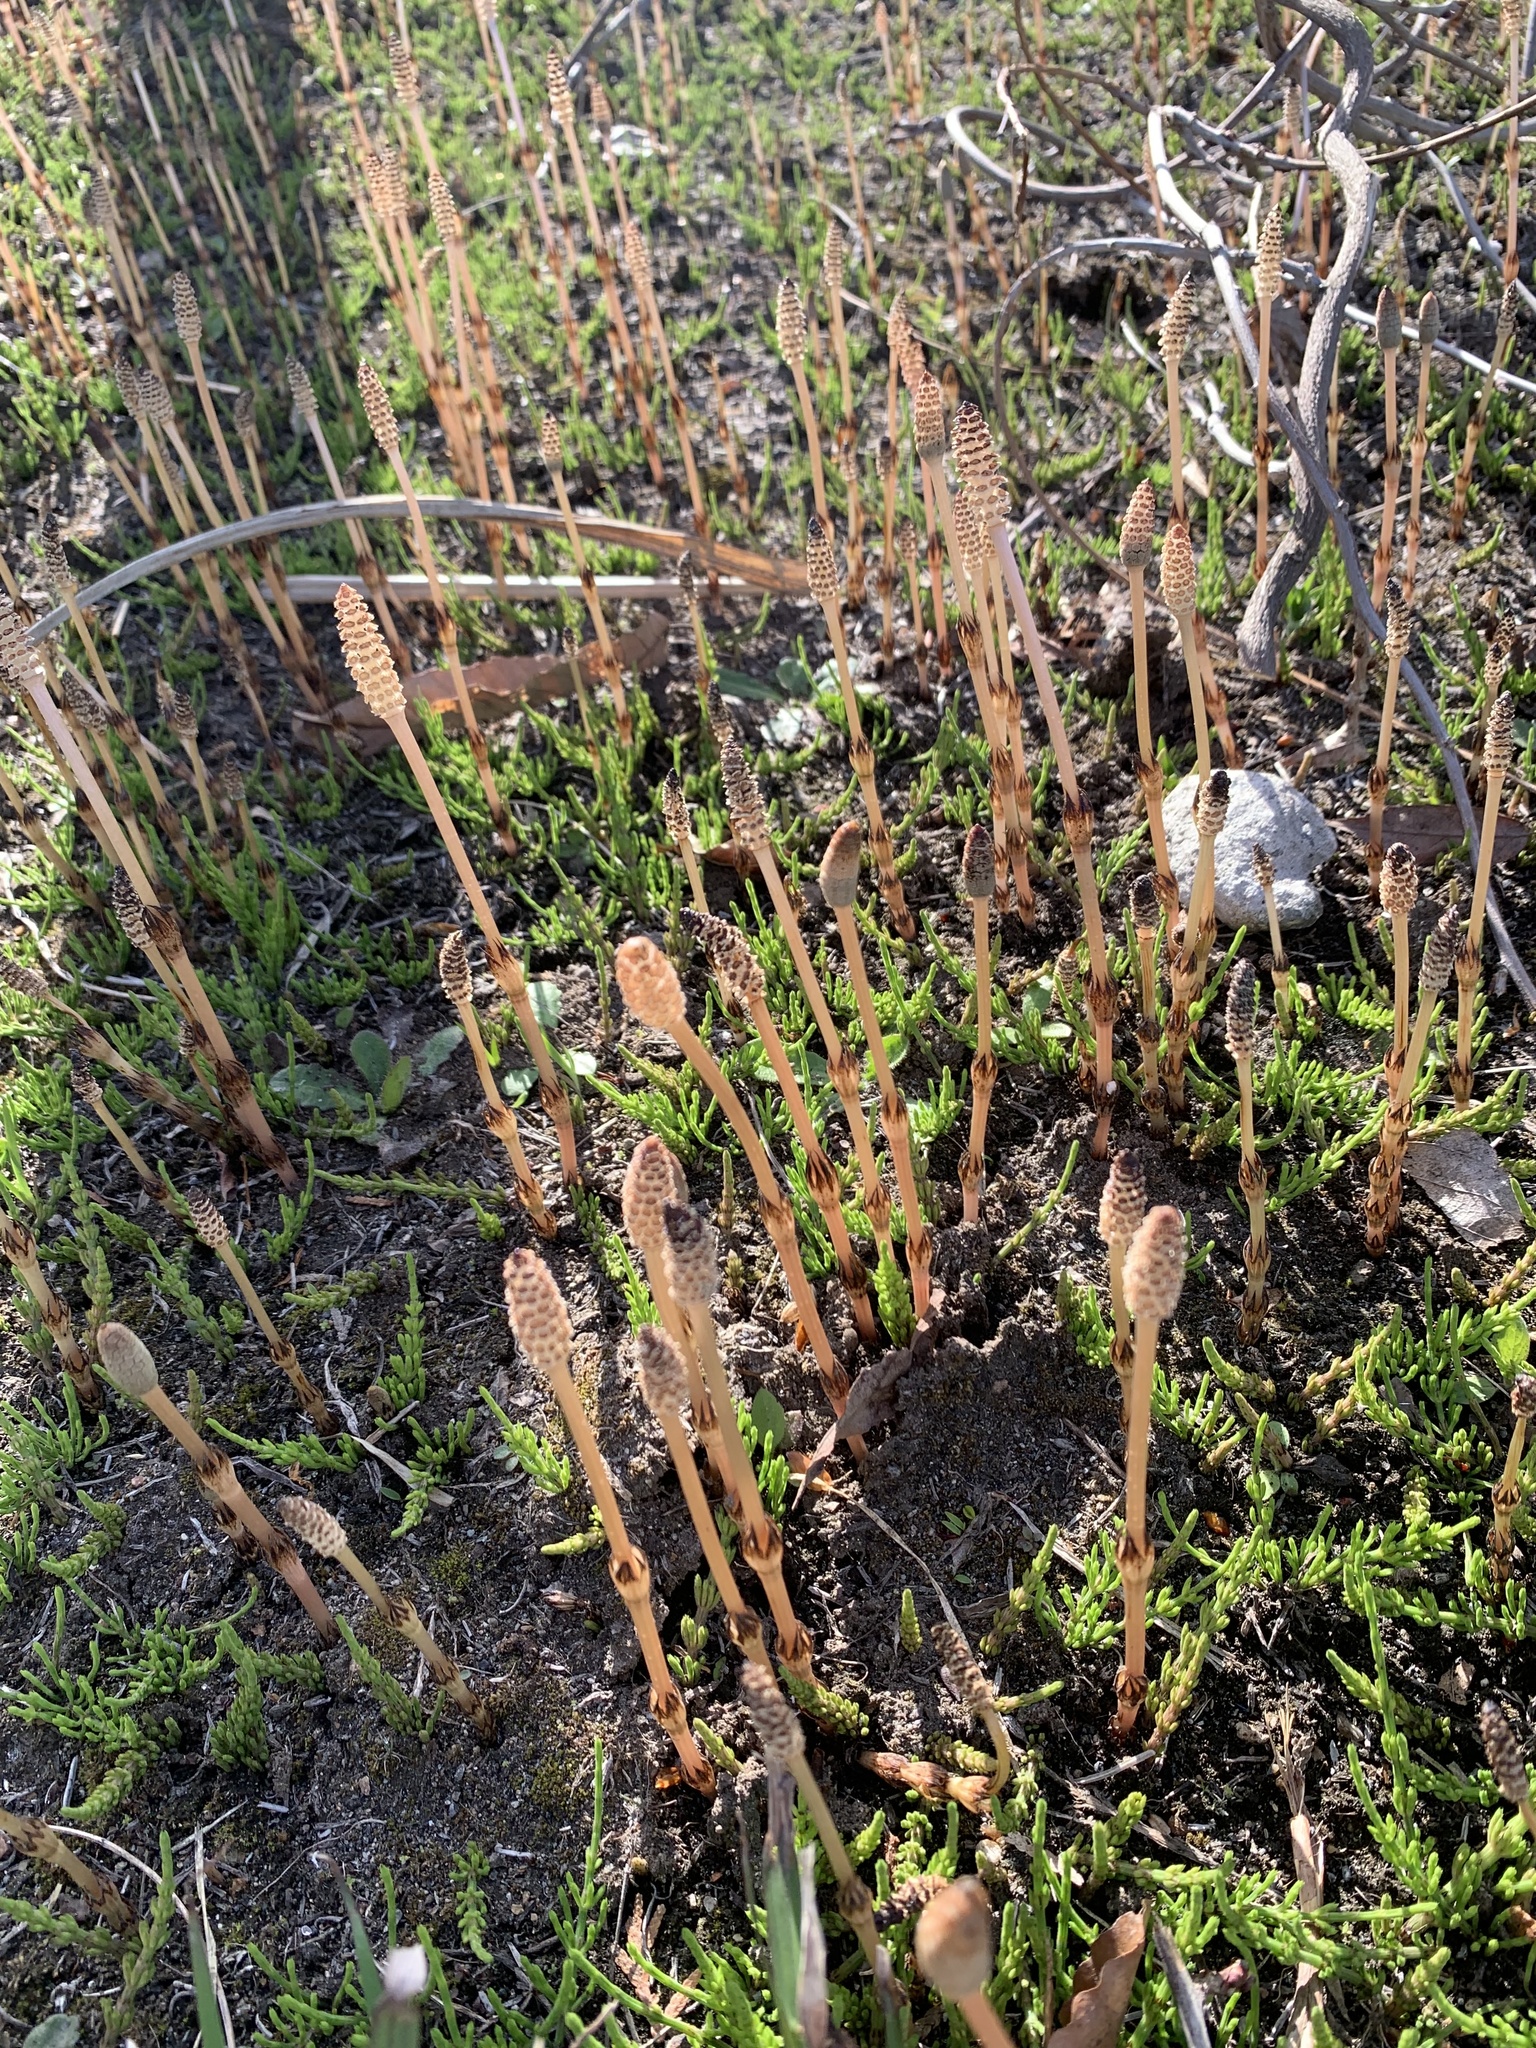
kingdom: Plantae
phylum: Tracheophyta
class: Polypodiopsida
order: Equisetales
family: Equisetaceae
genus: Equisetum
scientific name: Equisetum arvense
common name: Field horsetail
